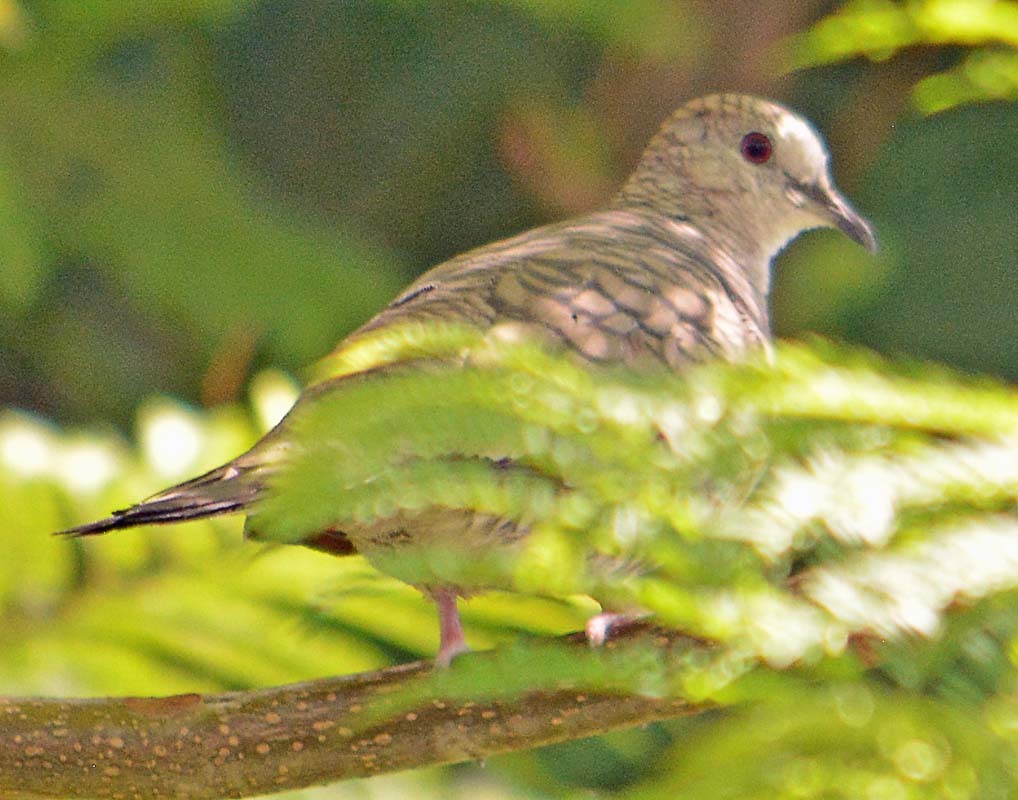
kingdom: Animalia
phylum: Chordata
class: Aves
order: Columbiformes
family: Columbidae
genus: Columbina
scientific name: Columbina inca
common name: Inca dove
